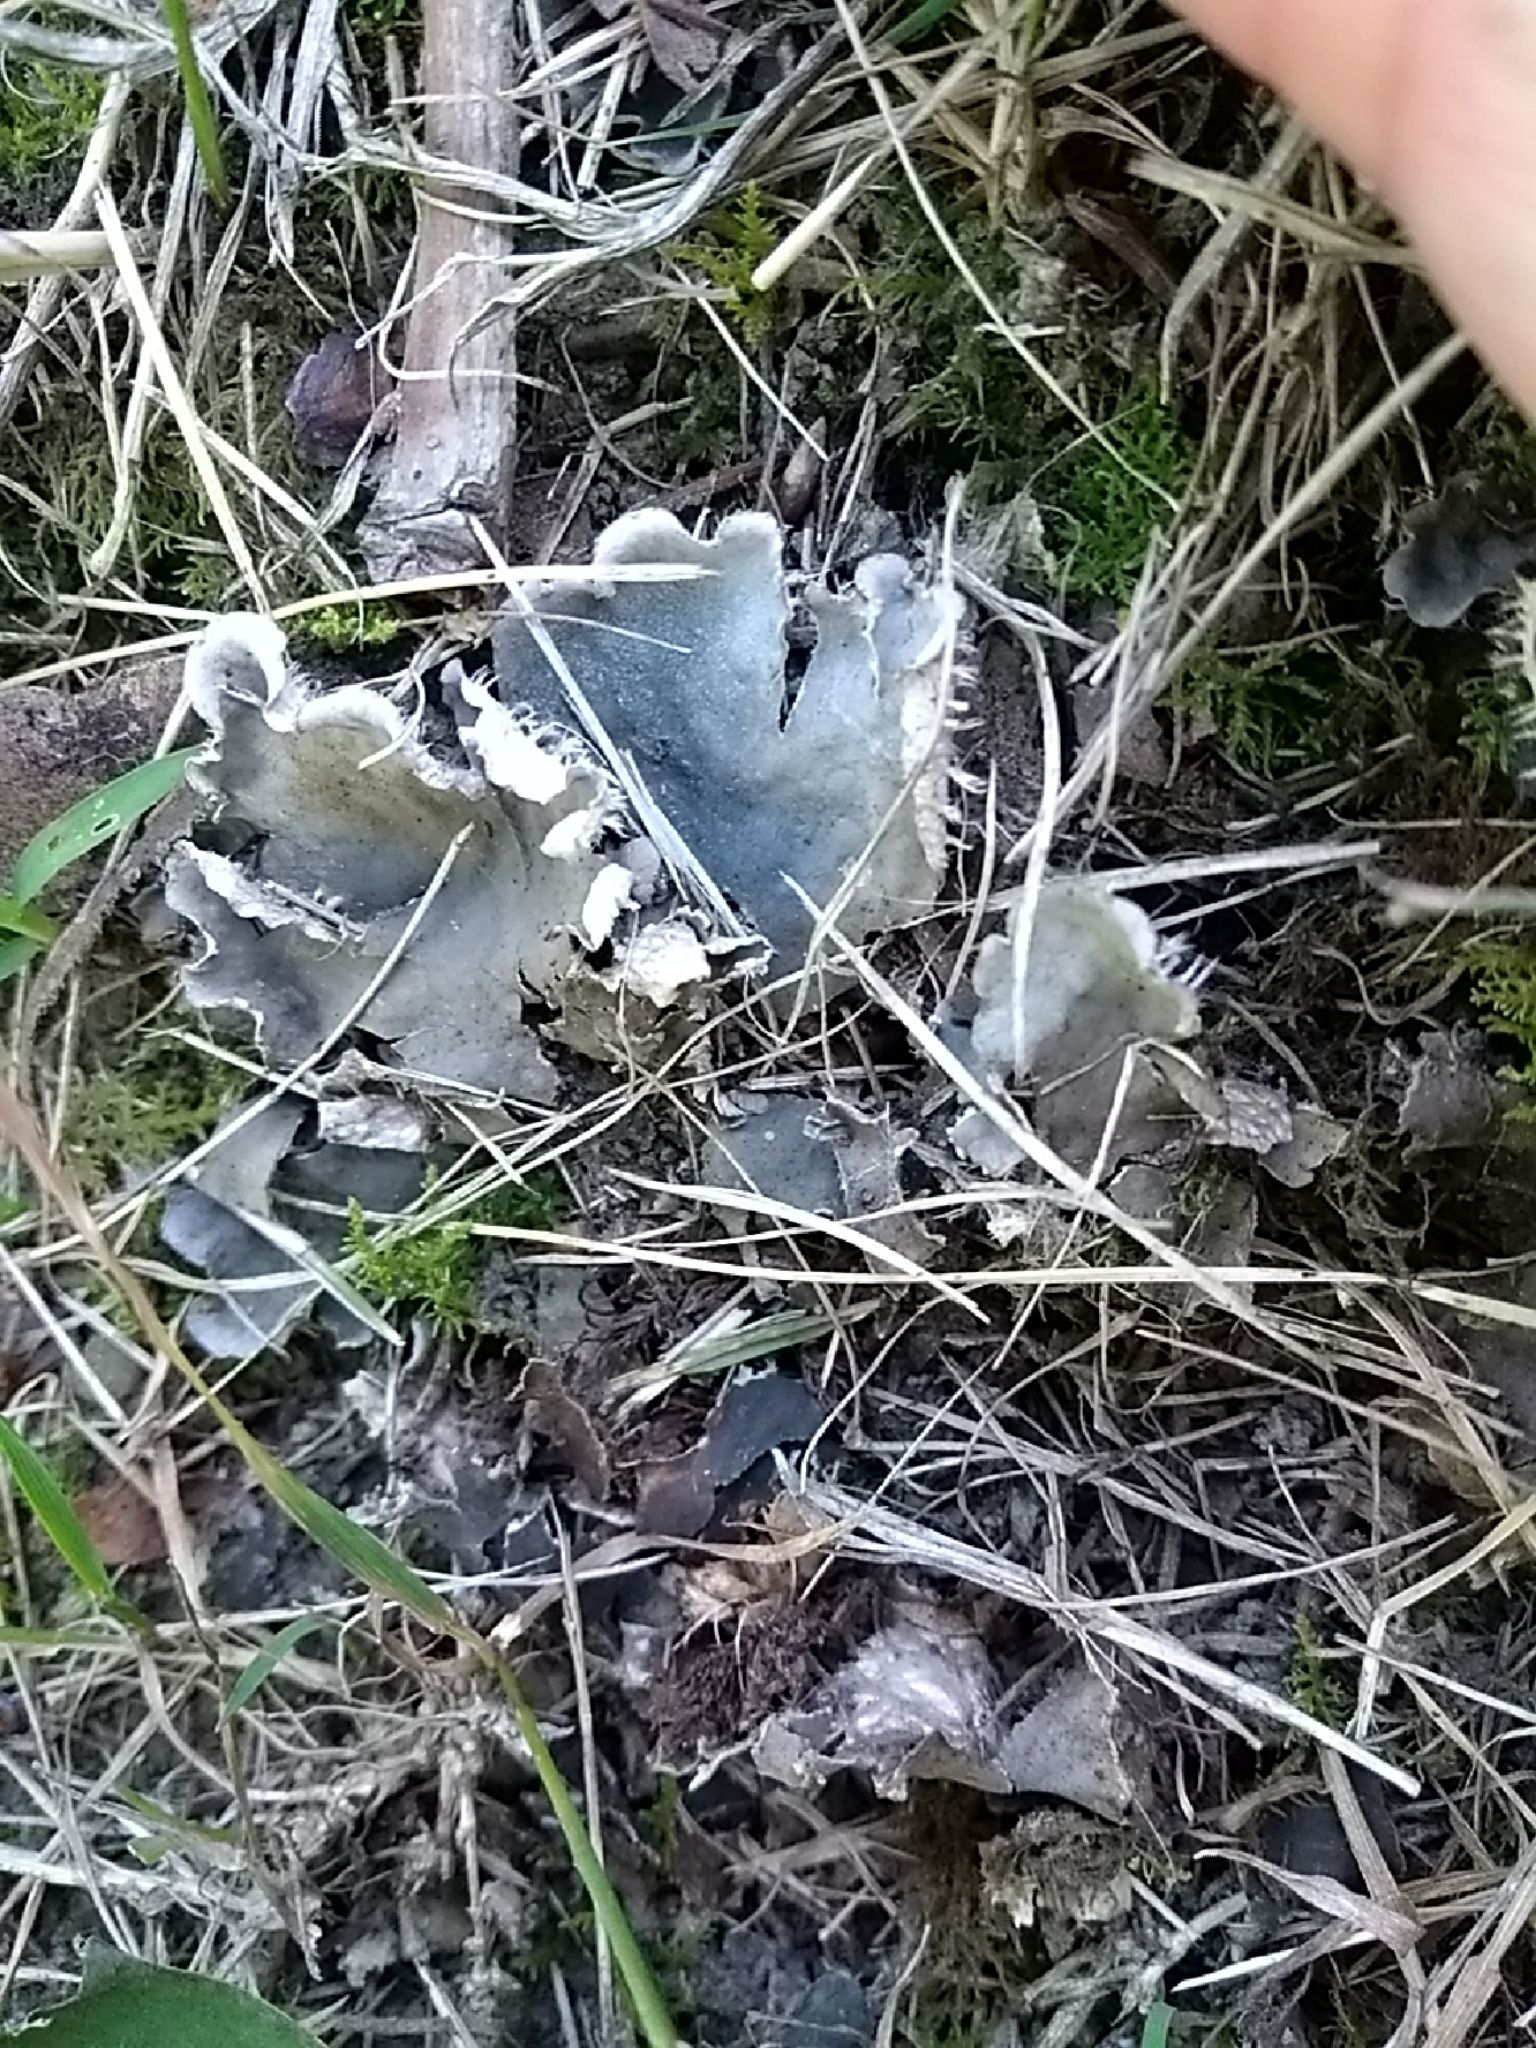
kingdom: Fungi
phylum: Ascomycota
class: Lecanoromycetes
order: Peltigerales
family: Peltigeraceae
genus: Peltigera
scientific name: Peltigera canina
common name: Dog pelt lichen
